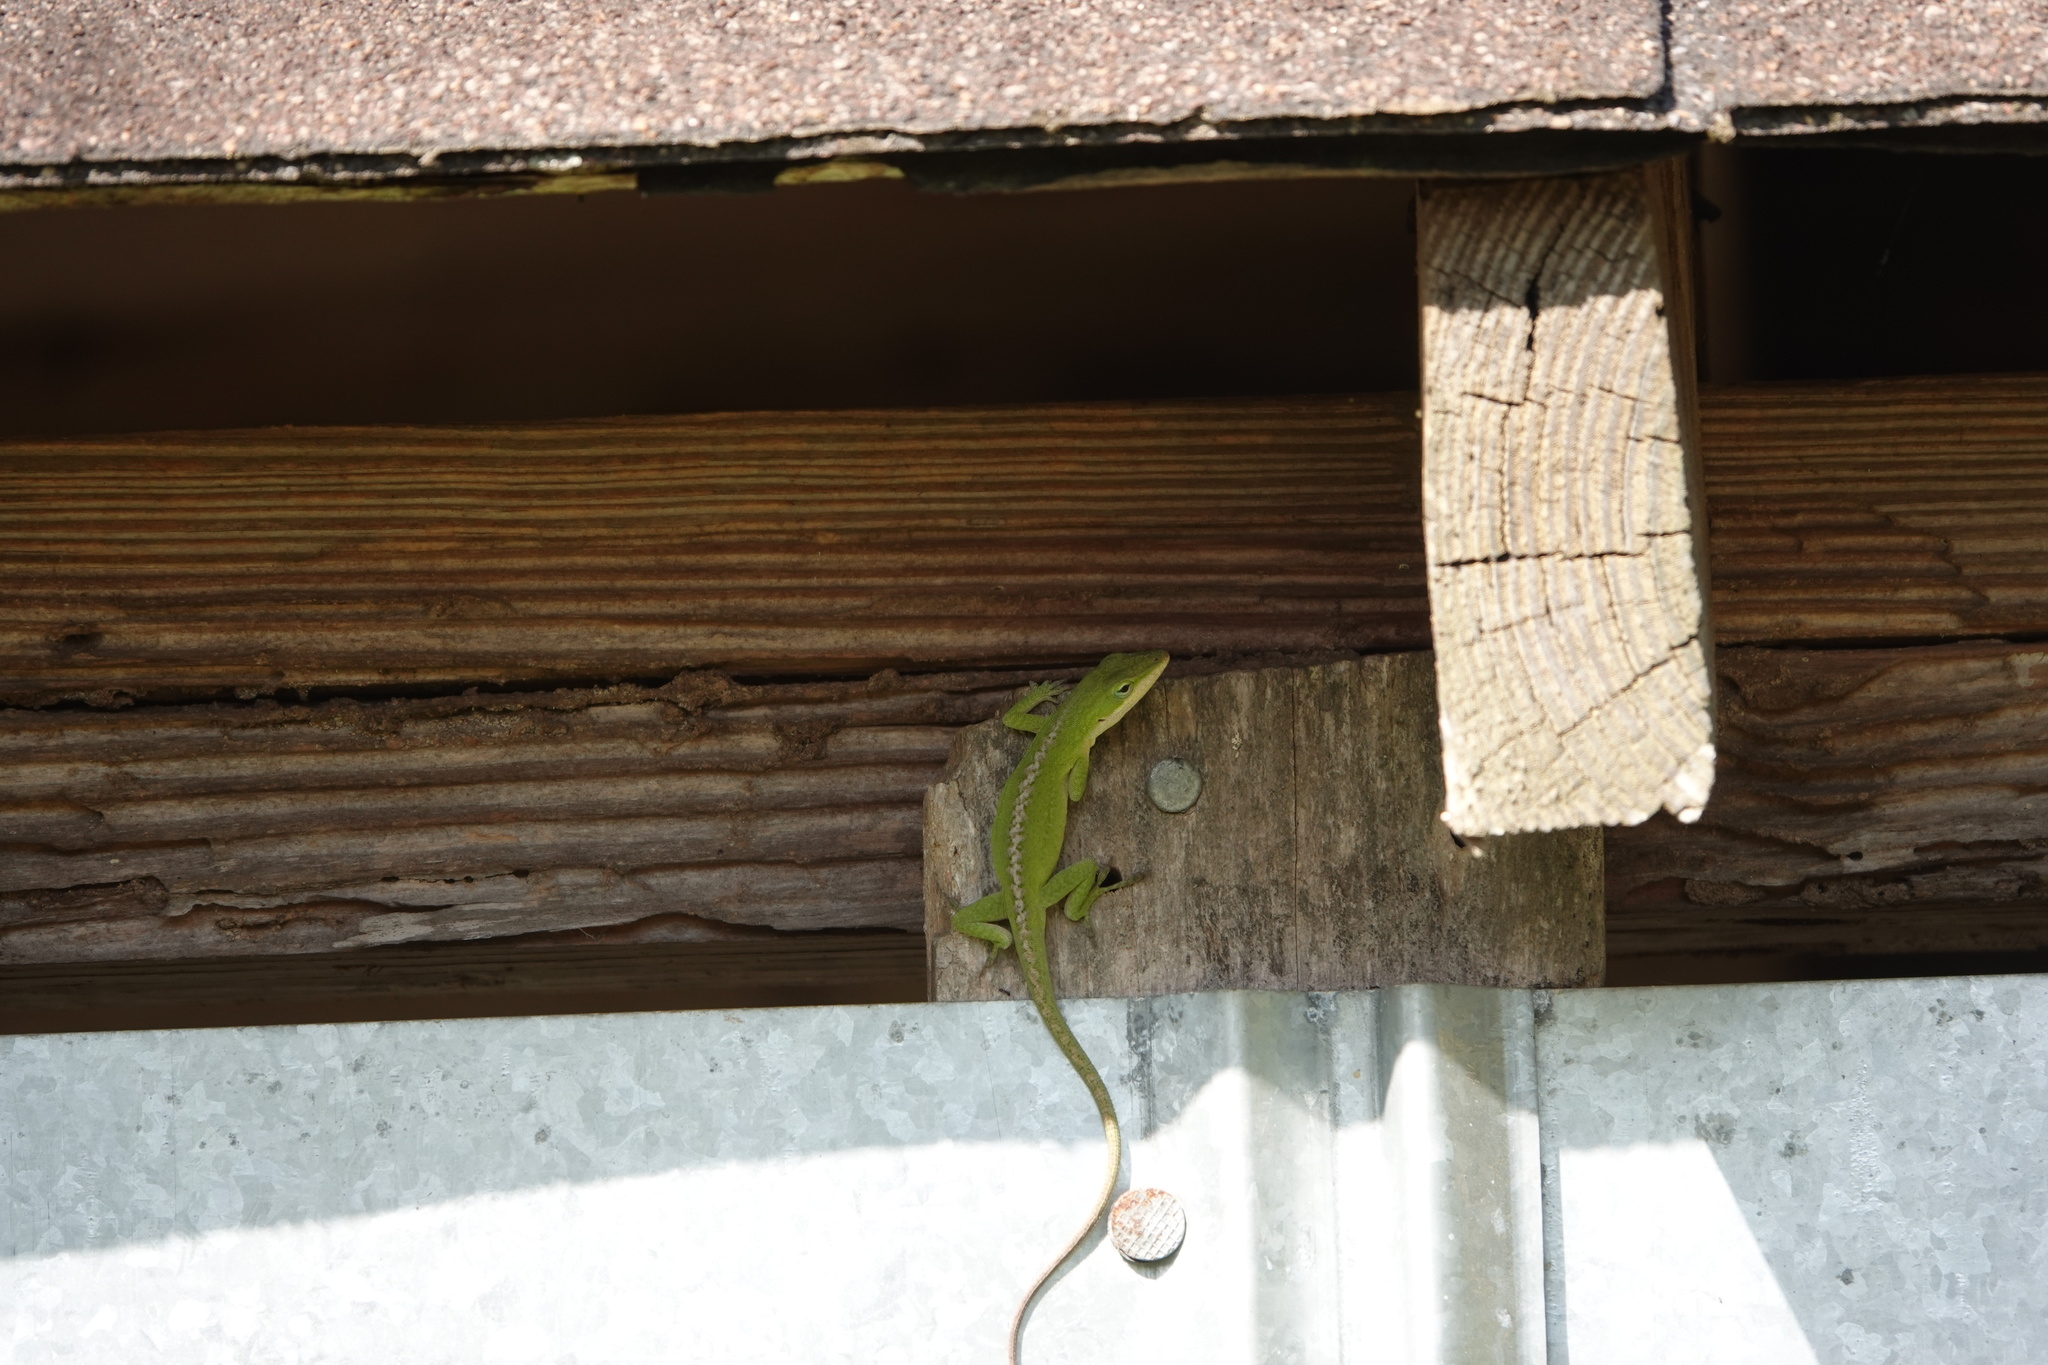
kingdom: Animalia
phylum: Chordata
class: Squamata
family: Dactyloidae
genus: Anolis
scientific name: Anolis carolinensis
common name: Green anole
